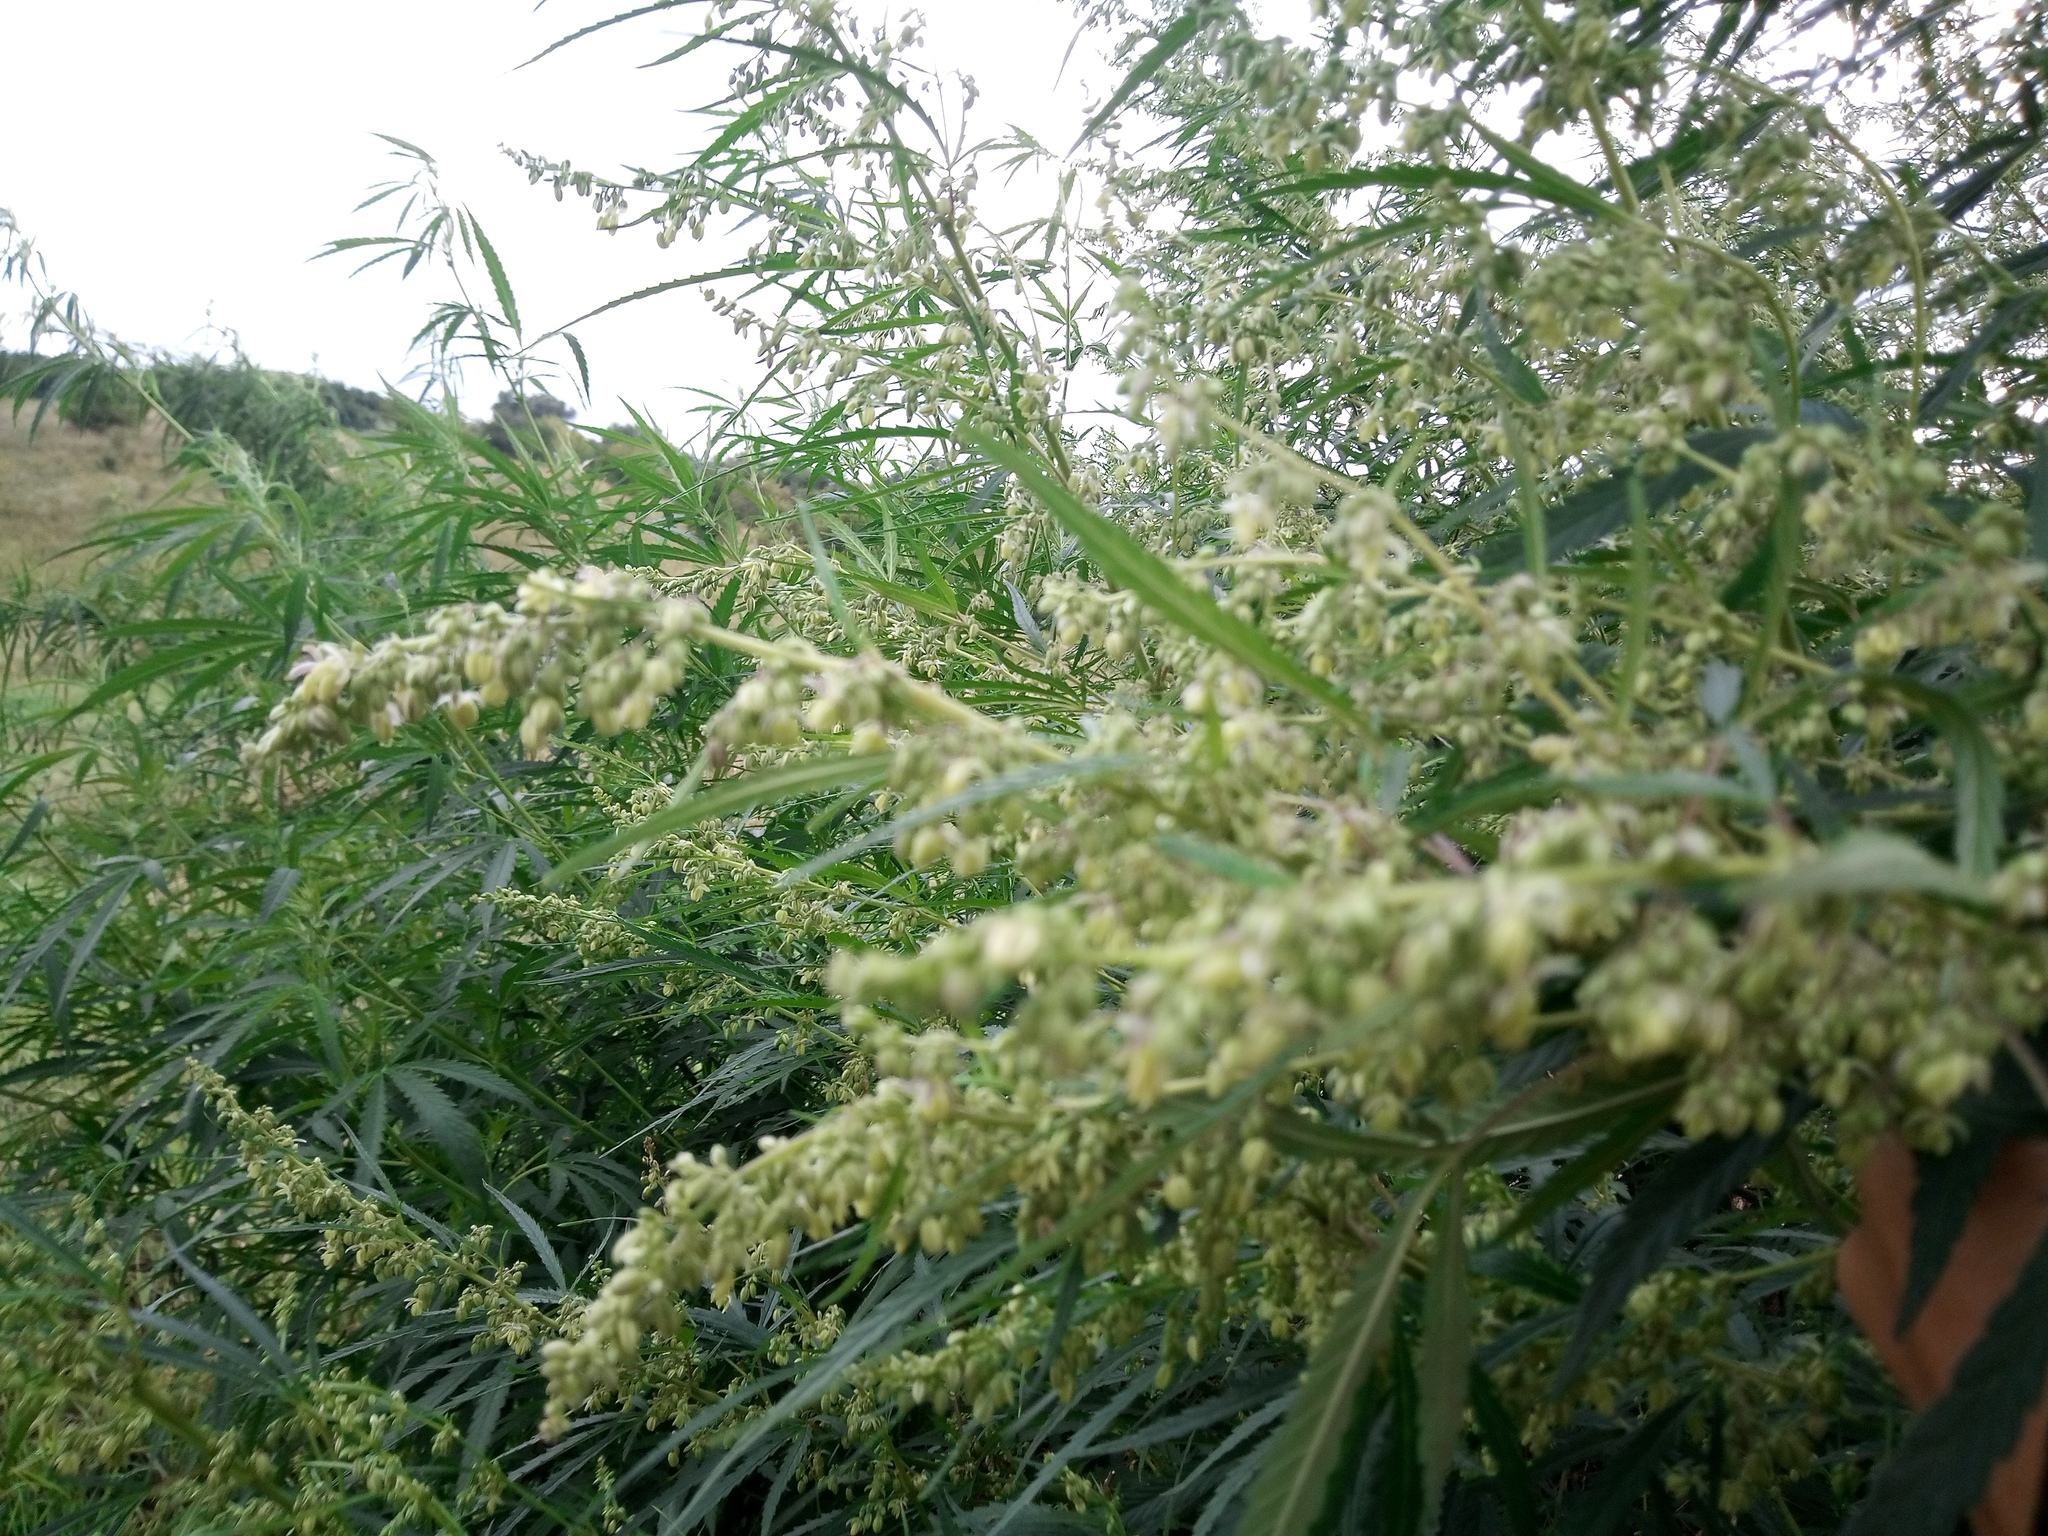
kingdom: Plantae
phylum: Tracheophyta
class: Magnoliopsida
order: Rosales
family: Cannabaceae
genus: Cannabis
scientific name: Cannabis sativa
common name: Hemp
